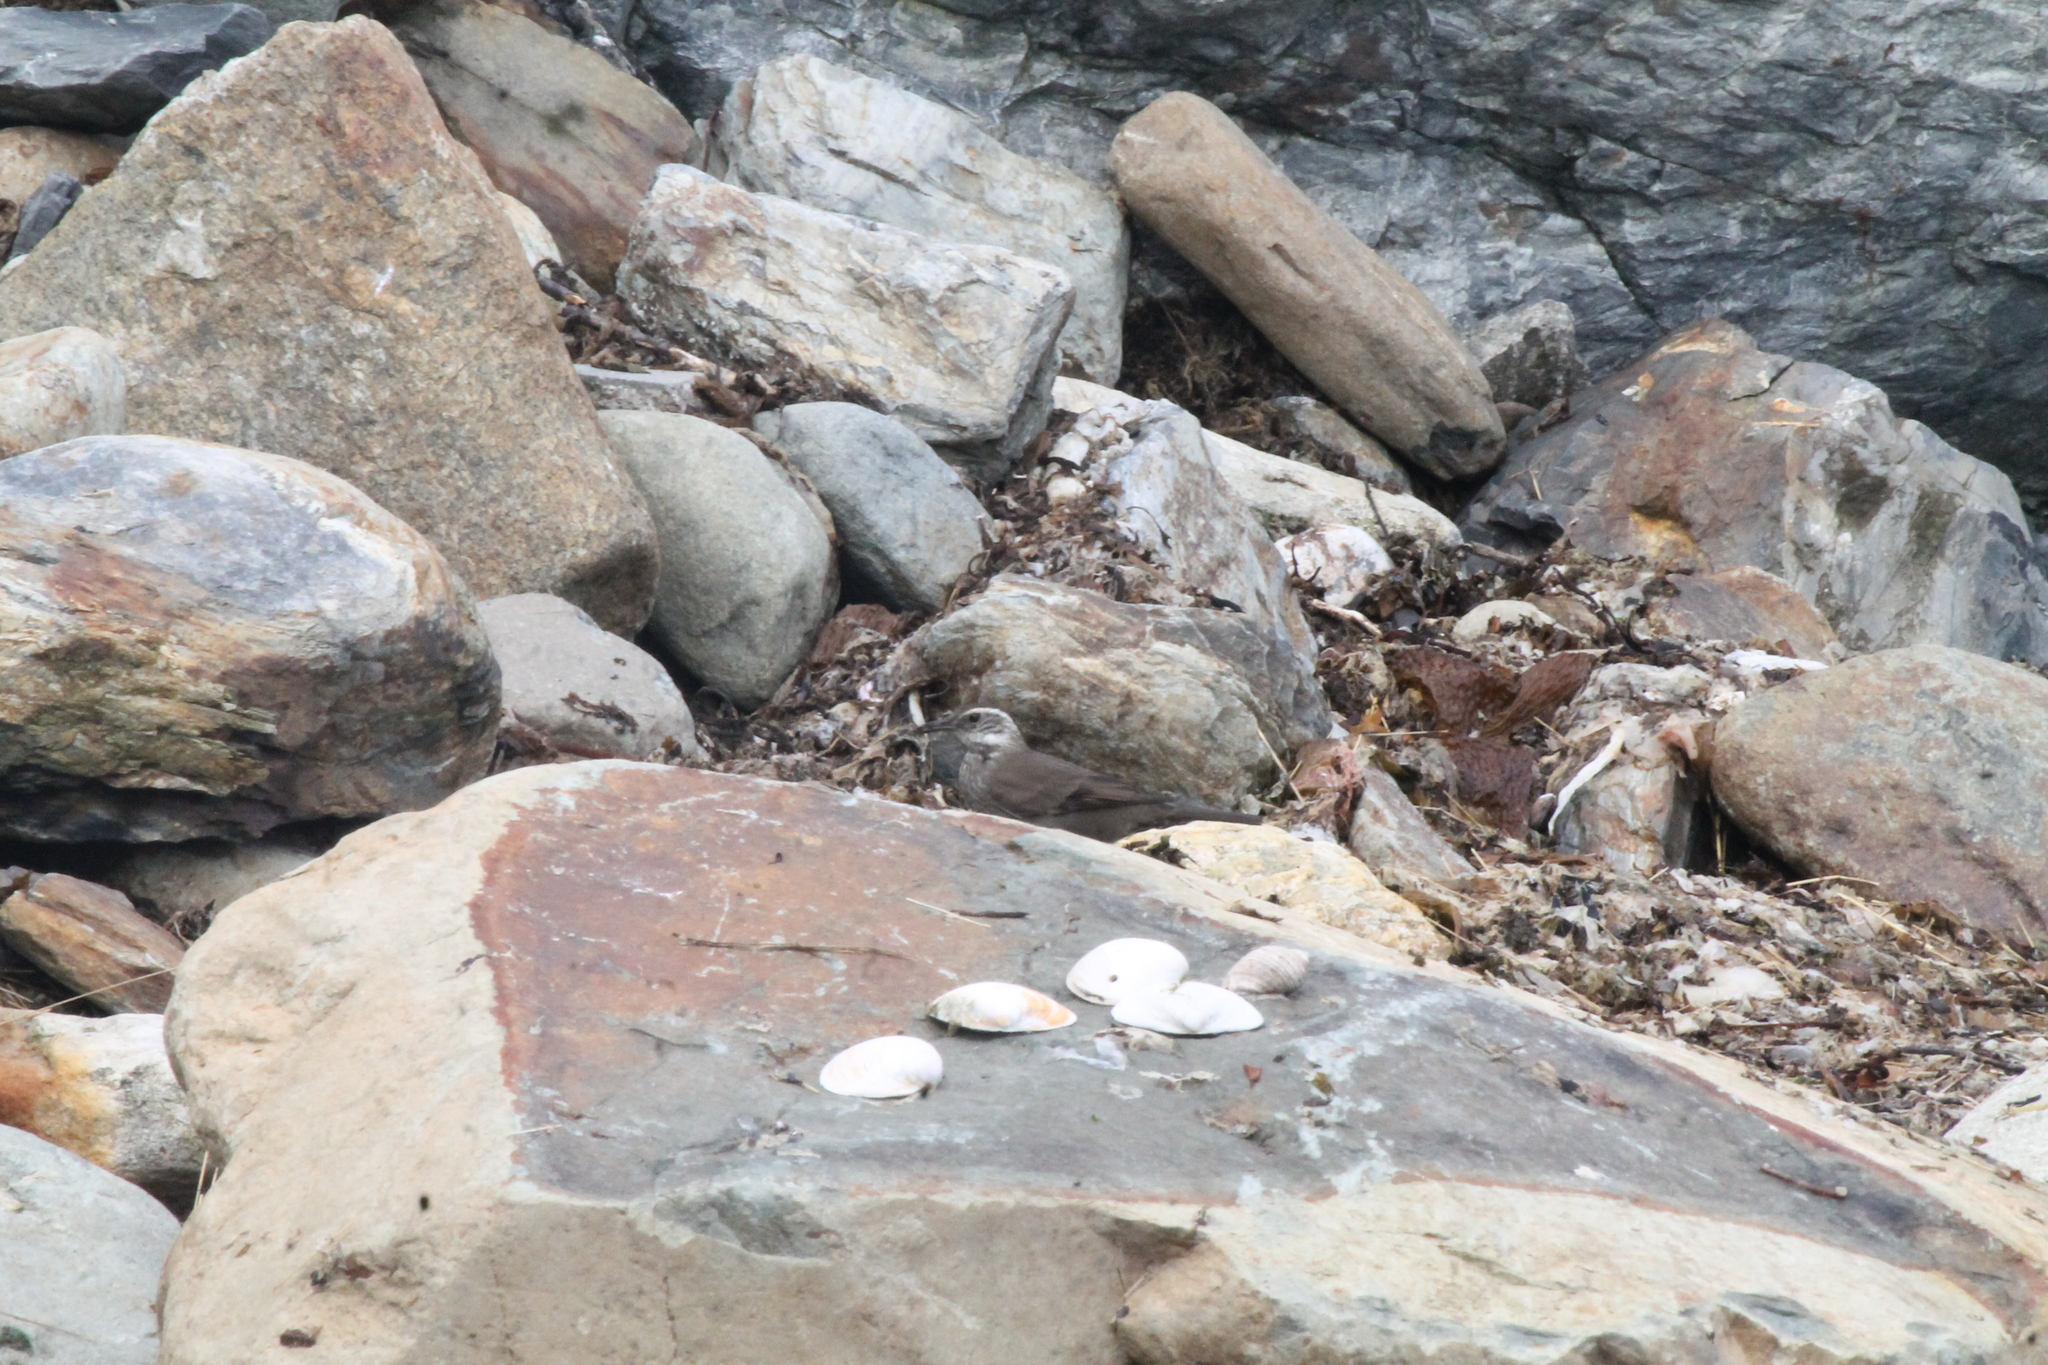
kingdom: Animalia
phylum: Chordata
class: Aves
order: Passeriformes
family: Furnariidae
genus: Cinclodes
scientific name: Cinclodes patagonicus
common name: Dark-bellied cinclodes
